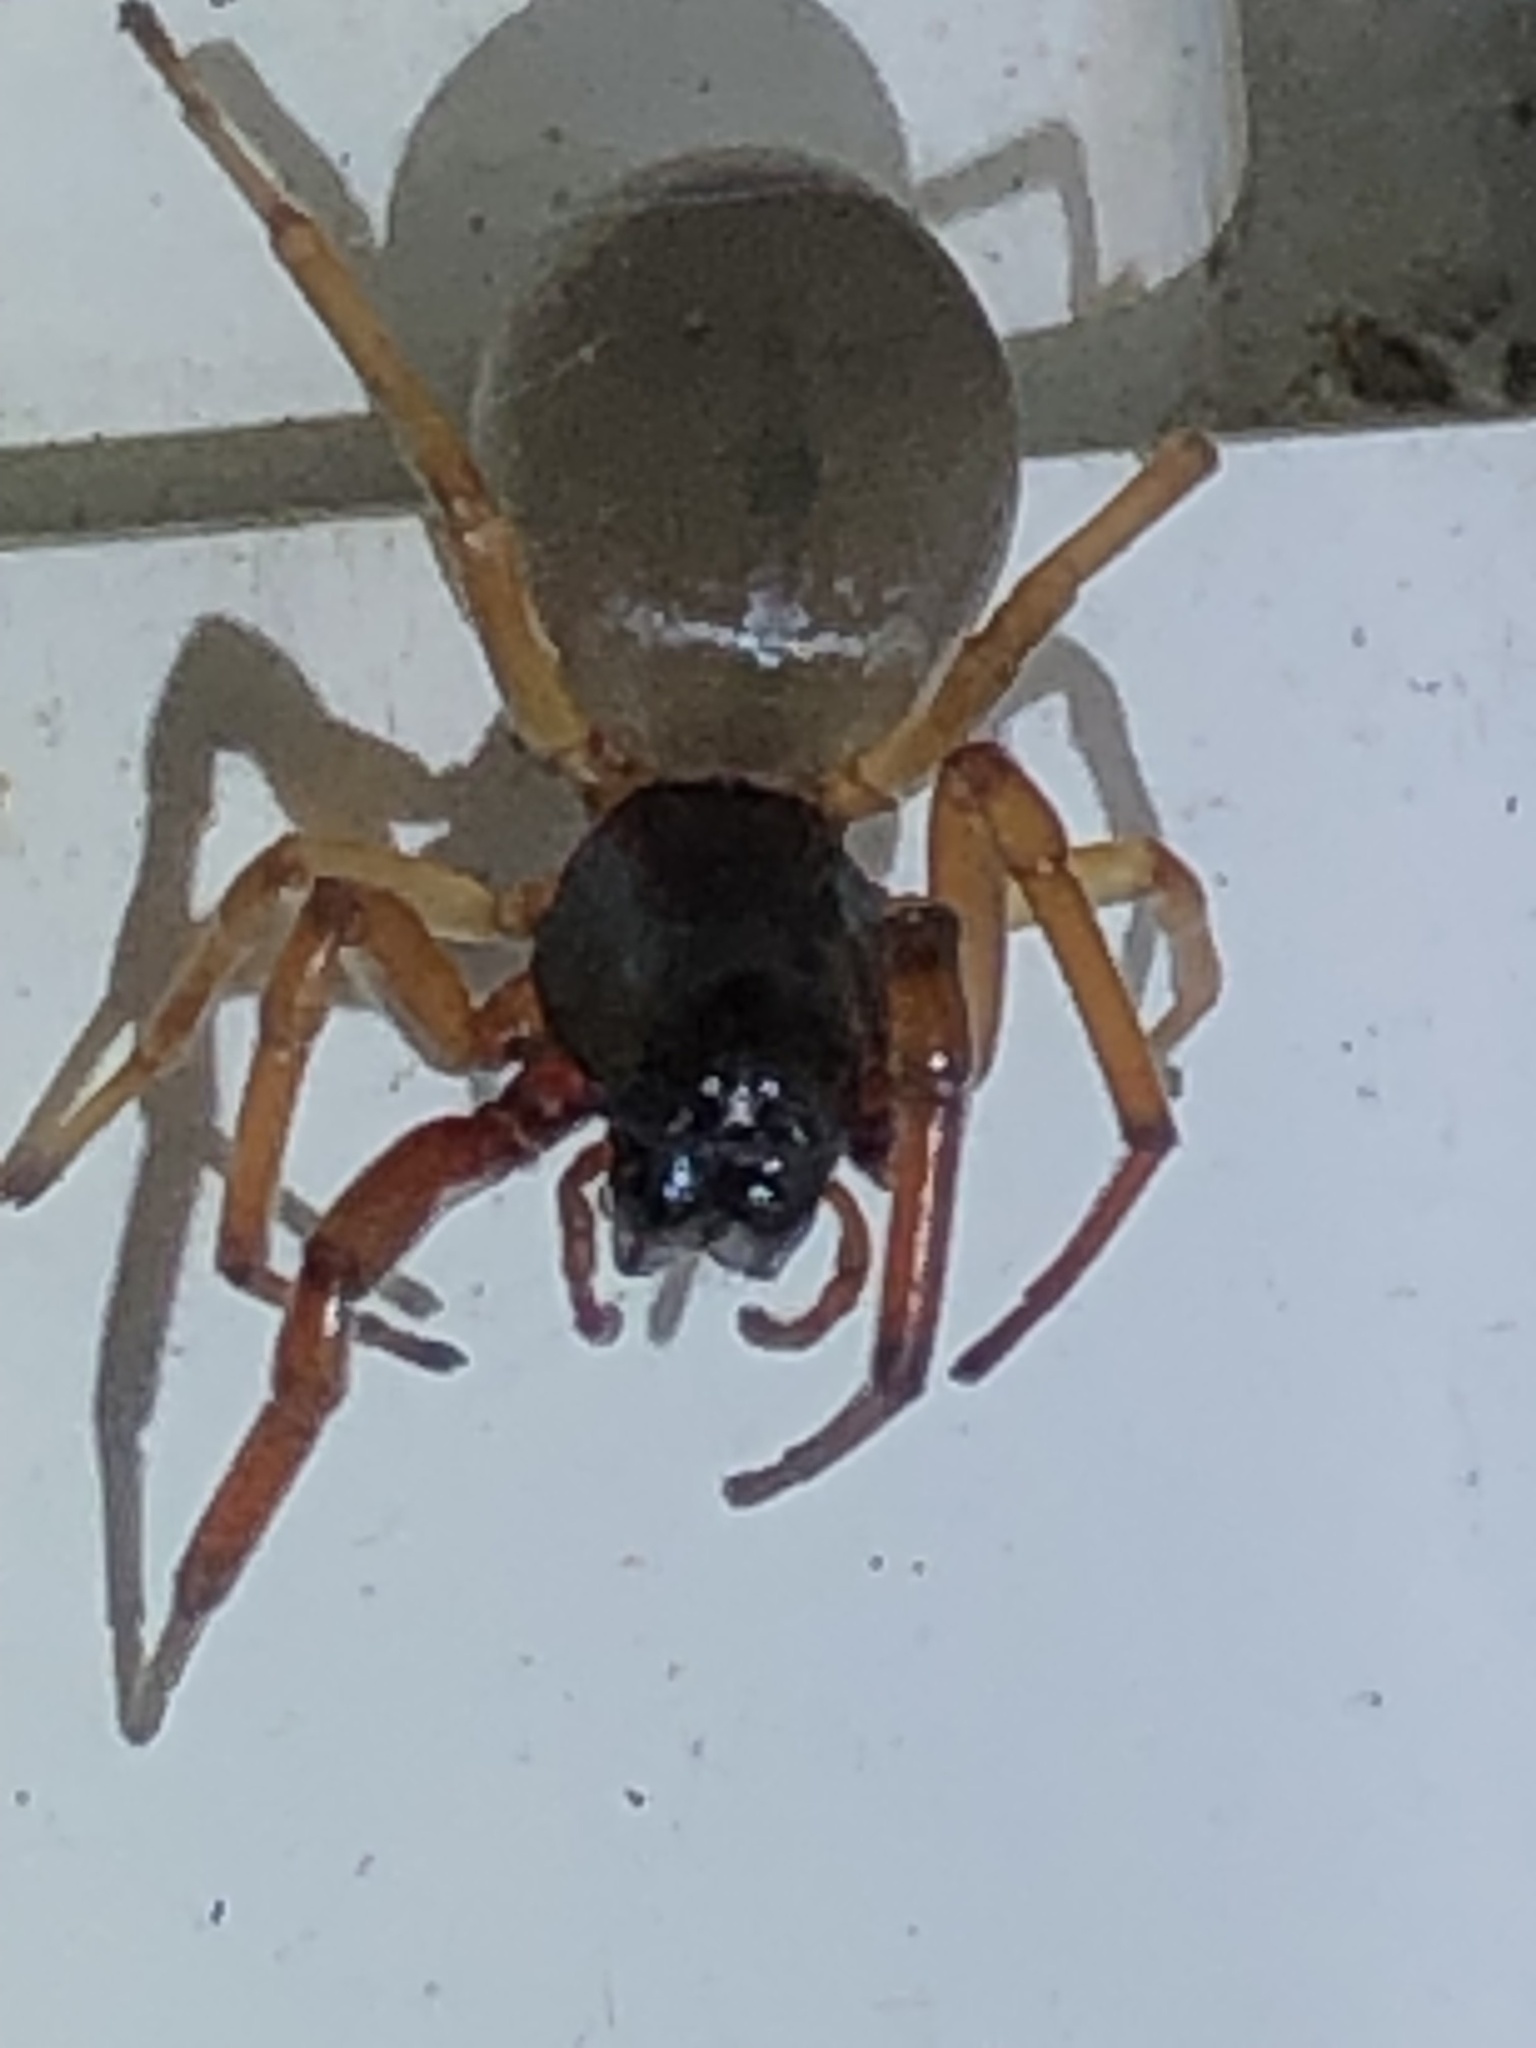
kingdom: Animalia
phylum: Arthropoda
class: Arachnida
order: Araneae
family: Trachelidae
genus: Trachelas
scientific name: Trachelas tranquillus
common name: Broad-faced sac spider
